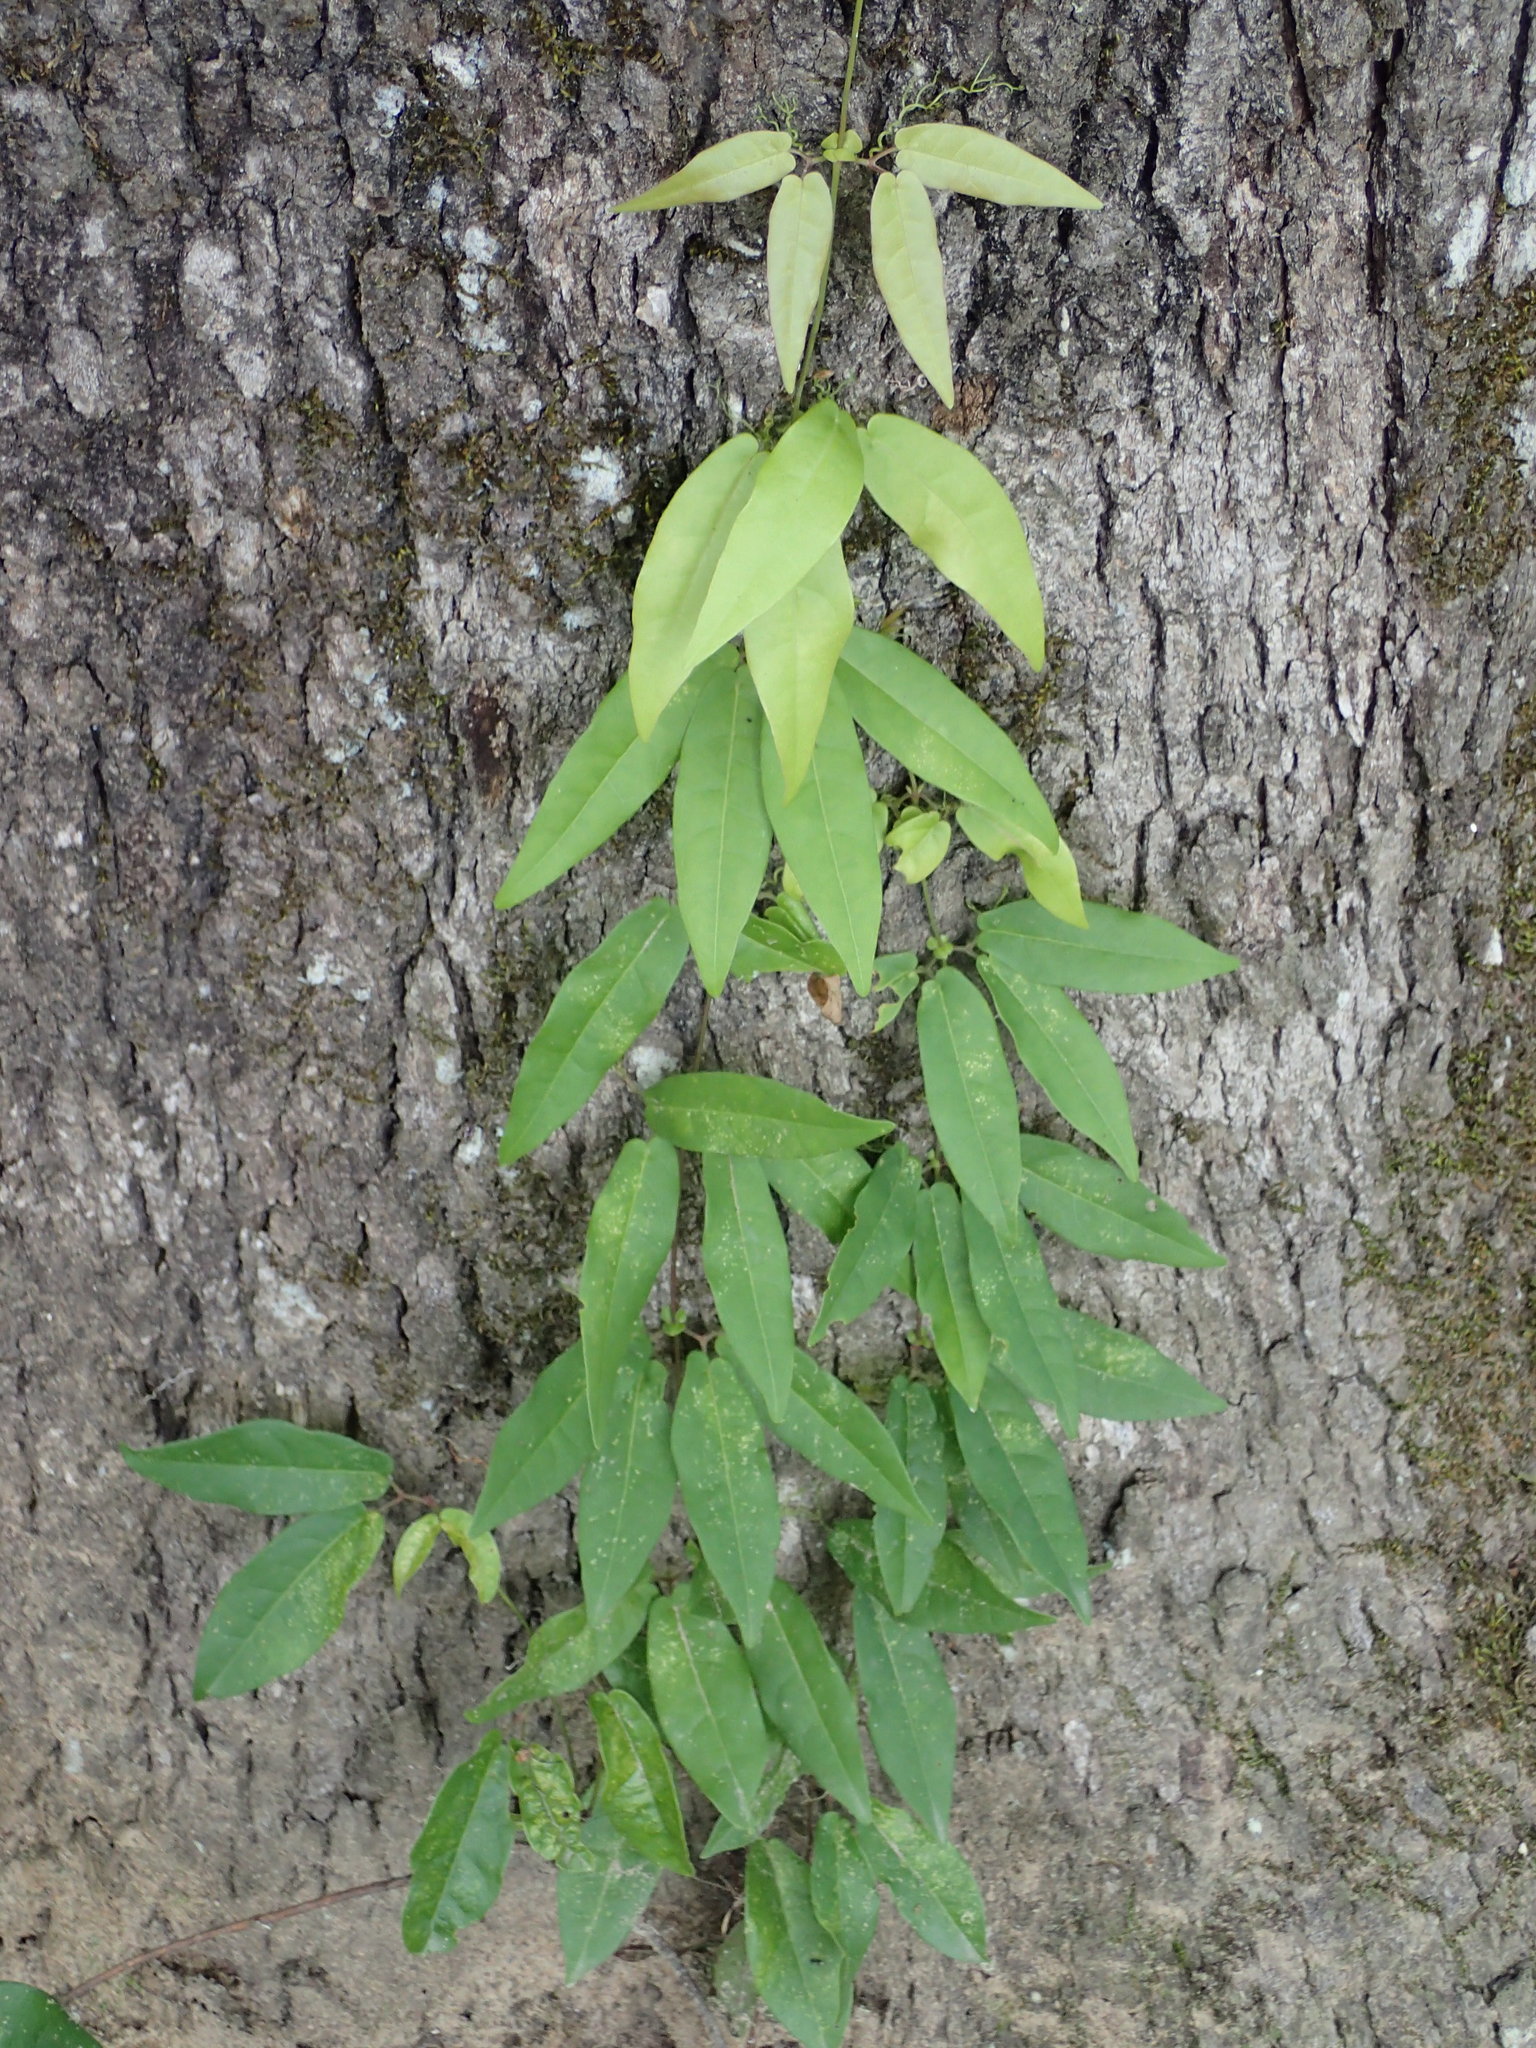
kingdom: Plantae
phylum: Tracheophyta
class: Magnoliopsida
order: Lamiales
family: Bignoniaceae
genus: Bignonia
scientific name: Bignonia capreolata
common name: Crossvine
